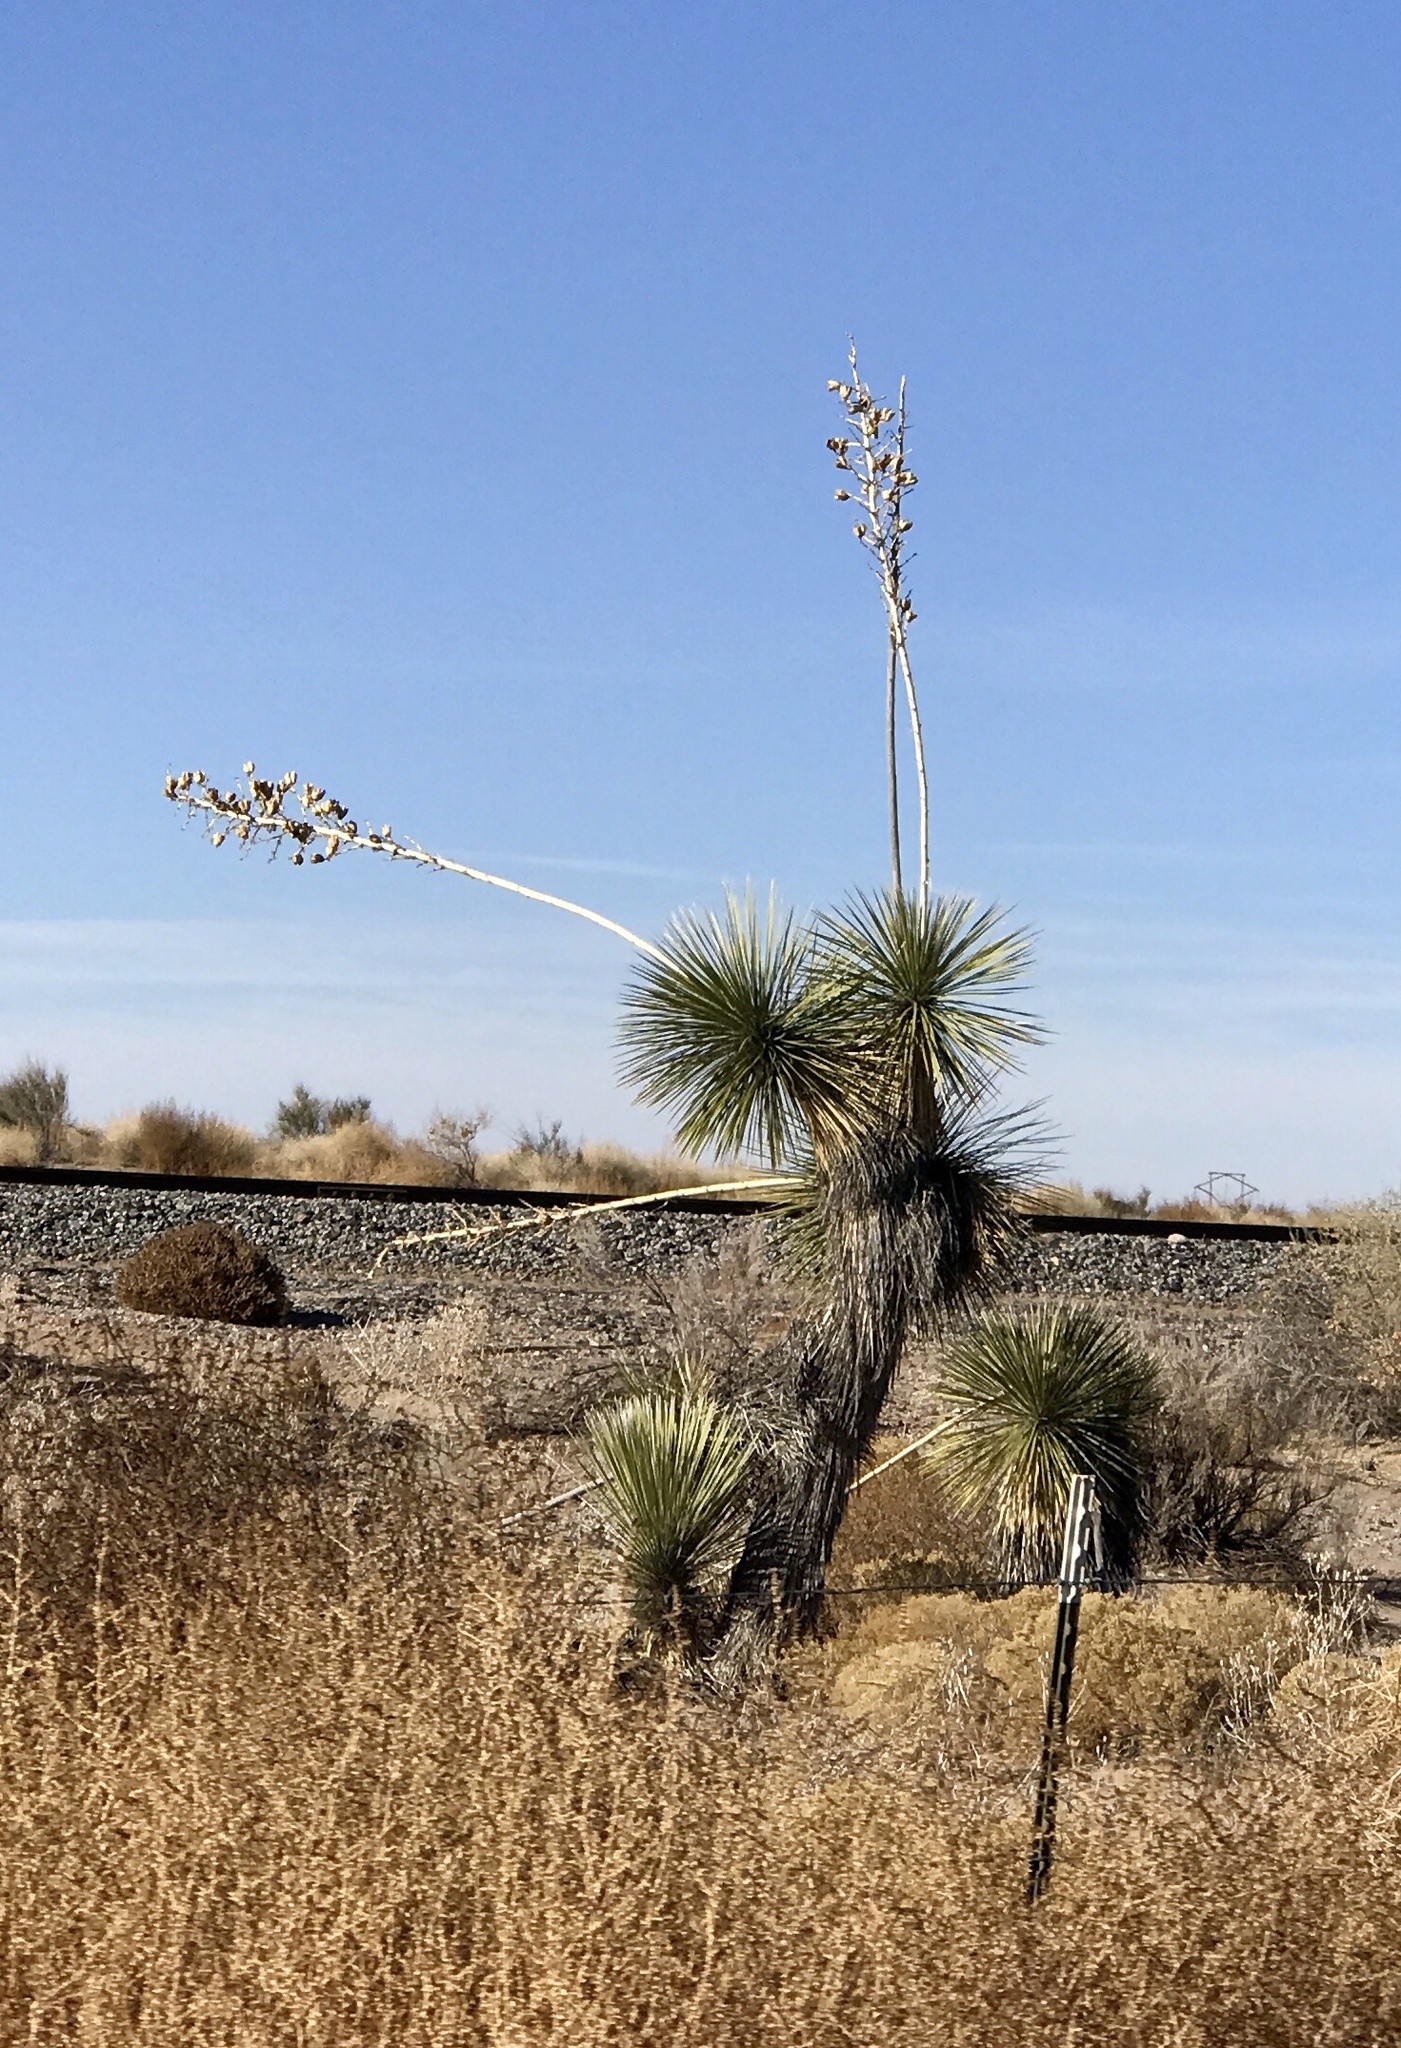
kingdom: Plantae
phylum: Tracheophyta
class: Liliopsida
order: Asparagales
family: Asparagaceae
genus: Yucca
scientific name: Yucca elata
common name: Palmella
